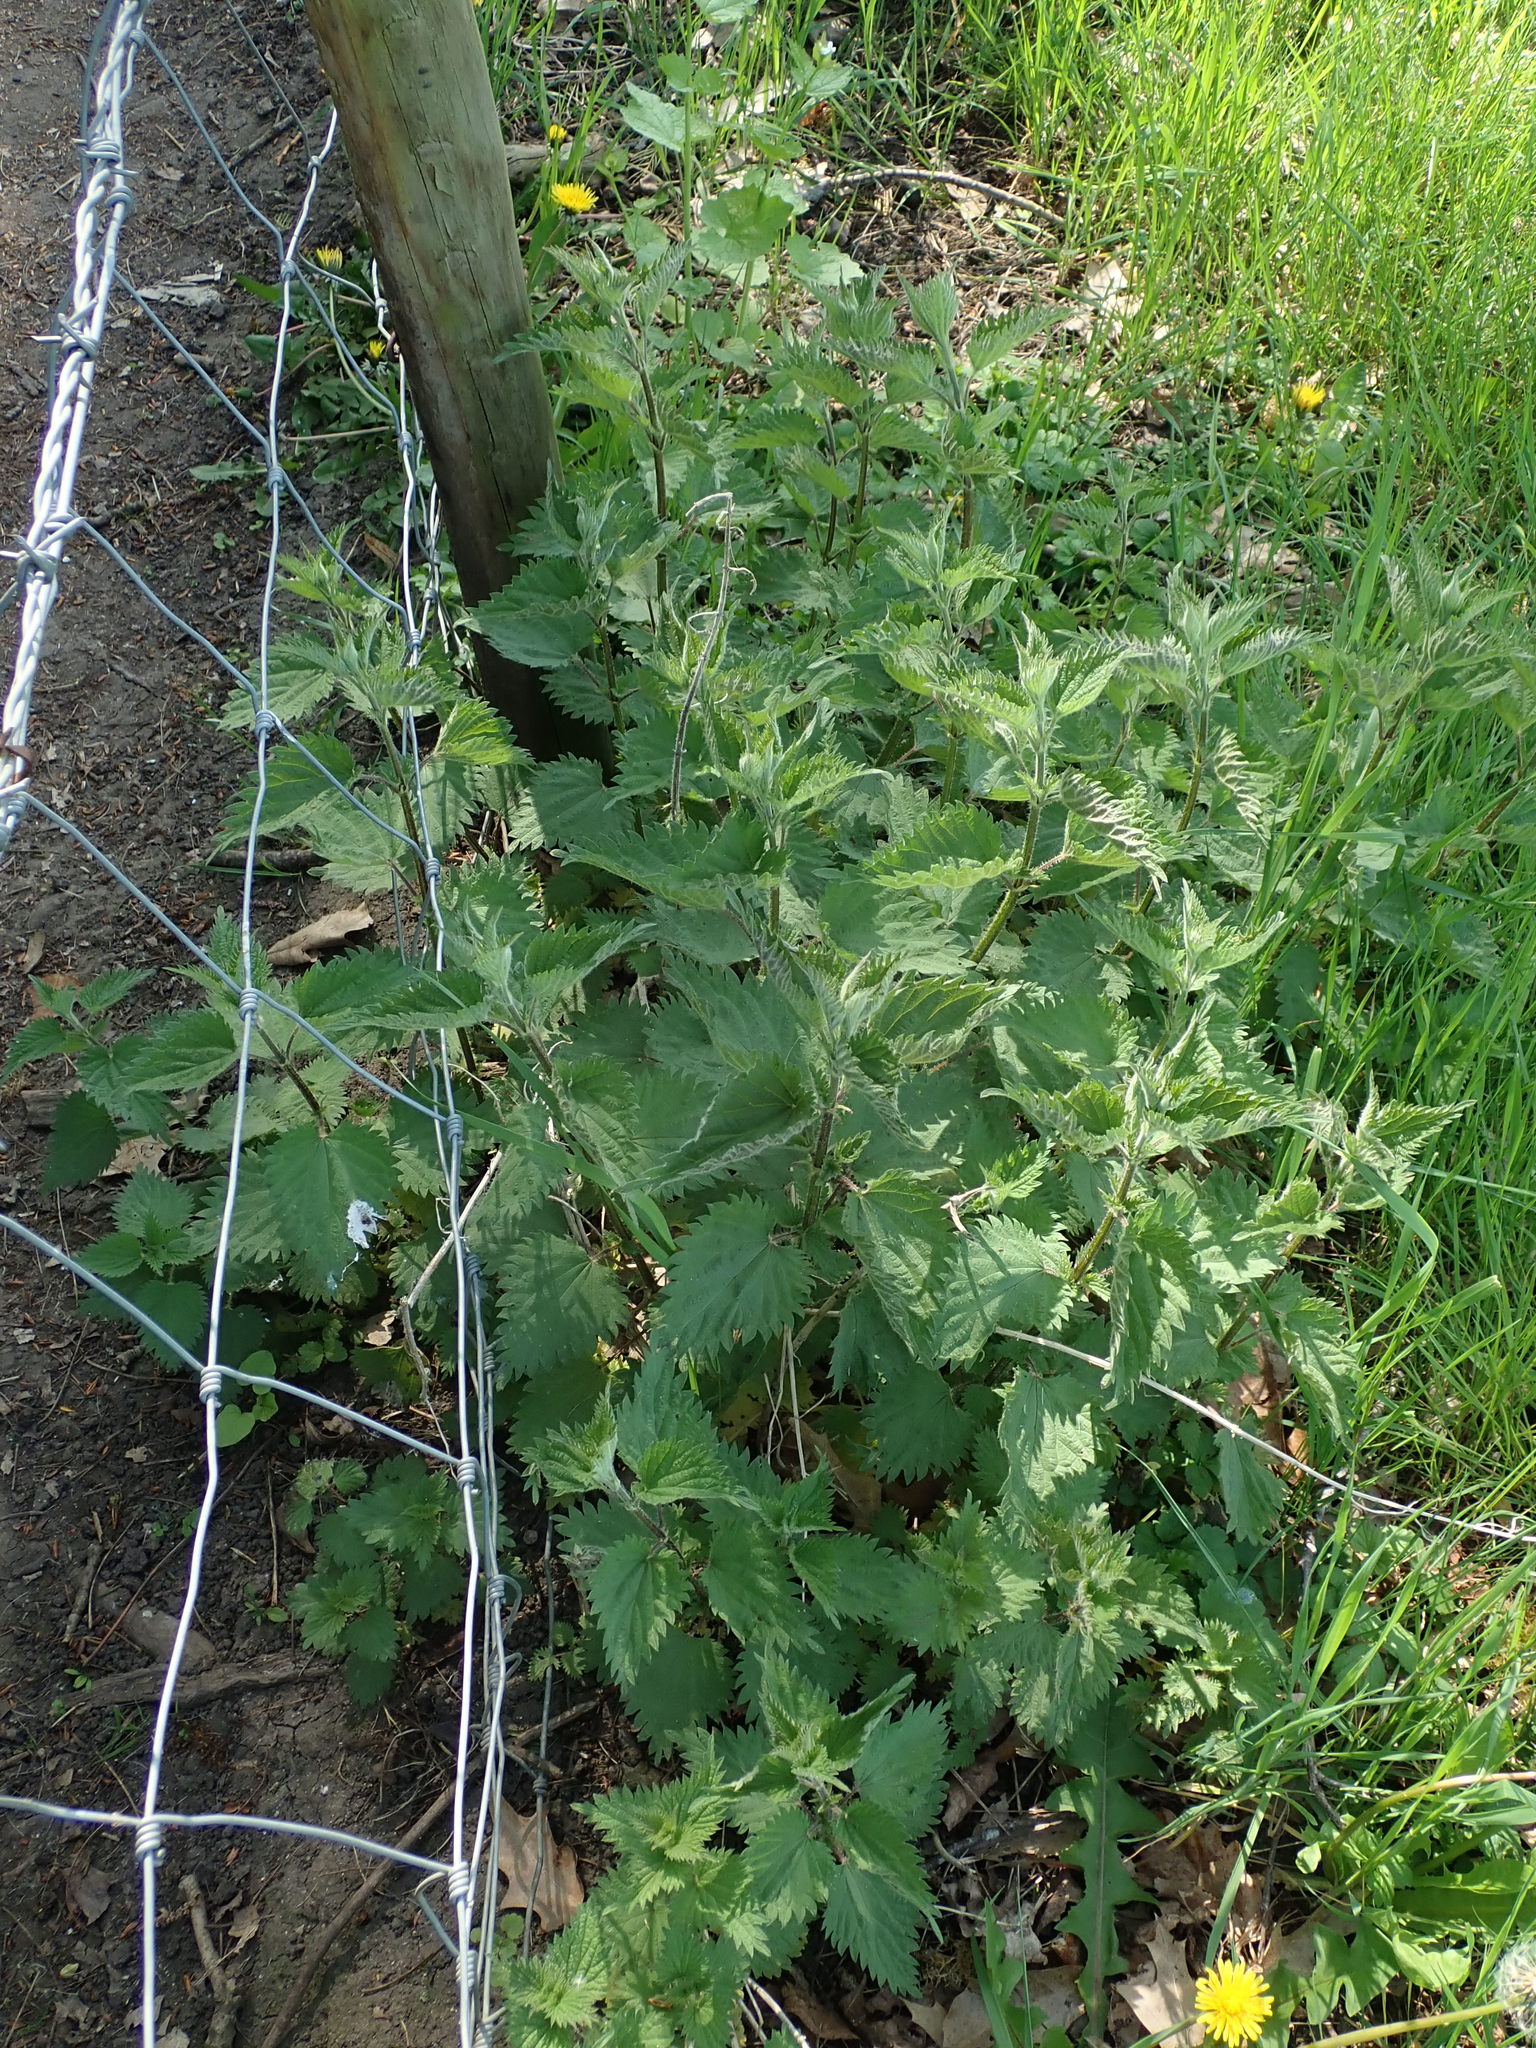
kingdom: Plantae
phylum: Tracheophyta
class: Magnoliopsida
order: Rosales
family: Urticaceae
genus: Urtica
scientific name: Urtica dioica
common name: Common nettle
